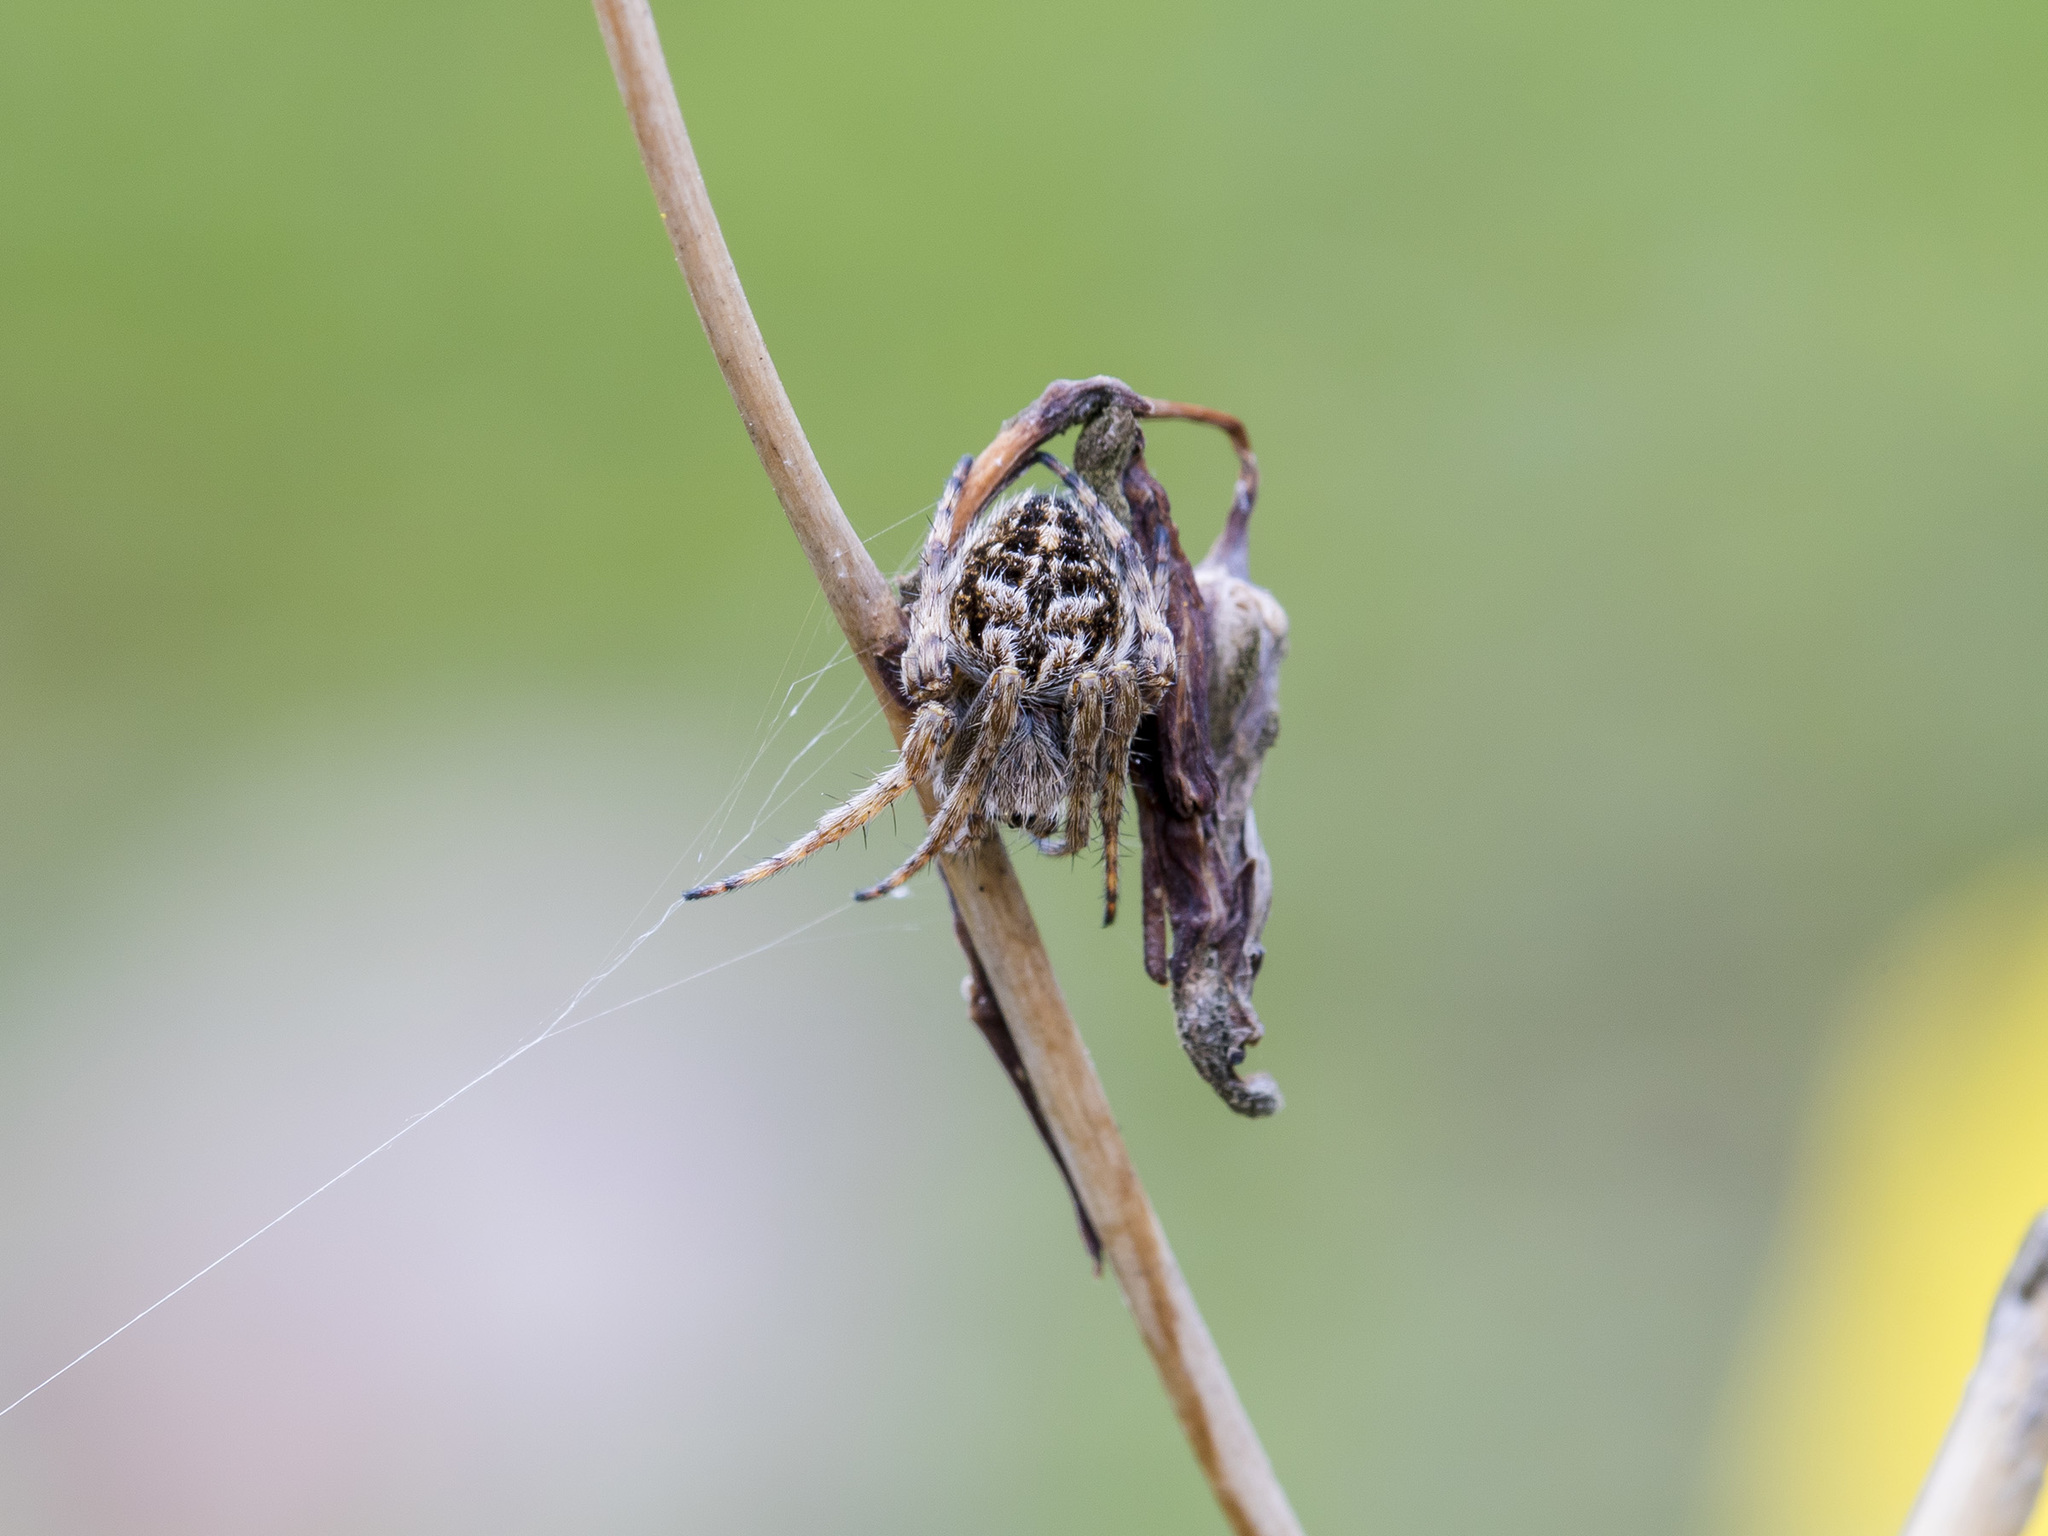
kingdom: Animalia
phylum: Arthropoda
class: Arachnida
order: Araneae
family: Araneidae
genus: Agalenatea
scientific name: Agalenatea redii
